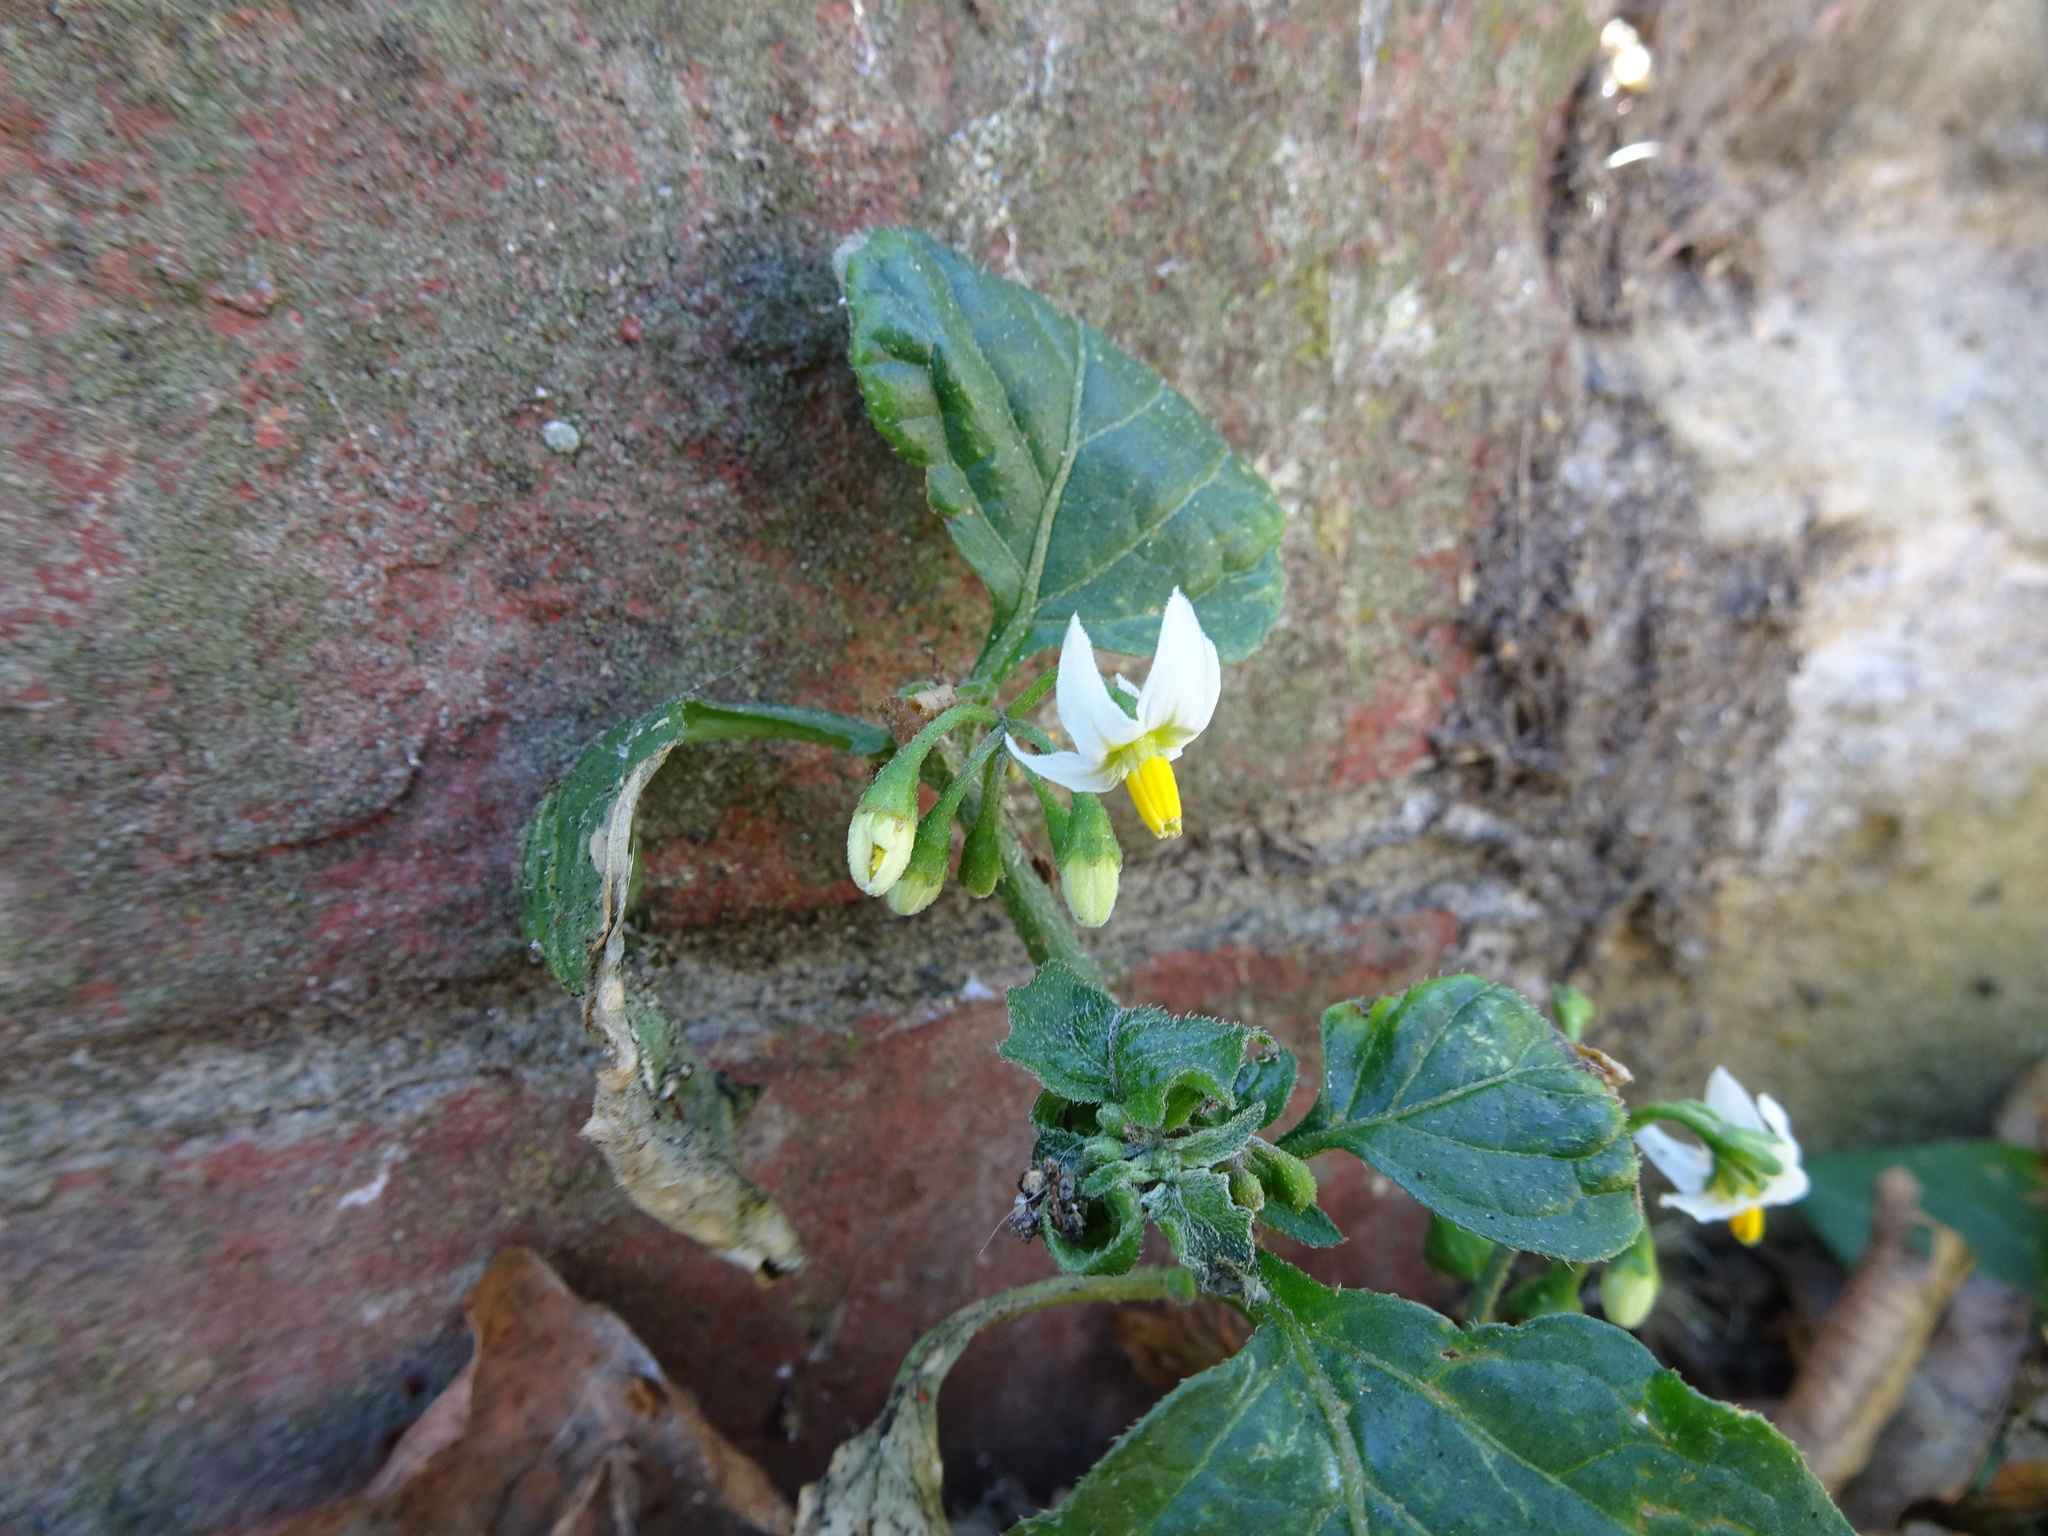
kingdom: Plantae
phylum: Tracheophyta
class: Magnoliopsida
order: Solanales
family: Solanaceae
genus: Solanum
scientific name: Solanum nigrum
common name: Black nightshade
